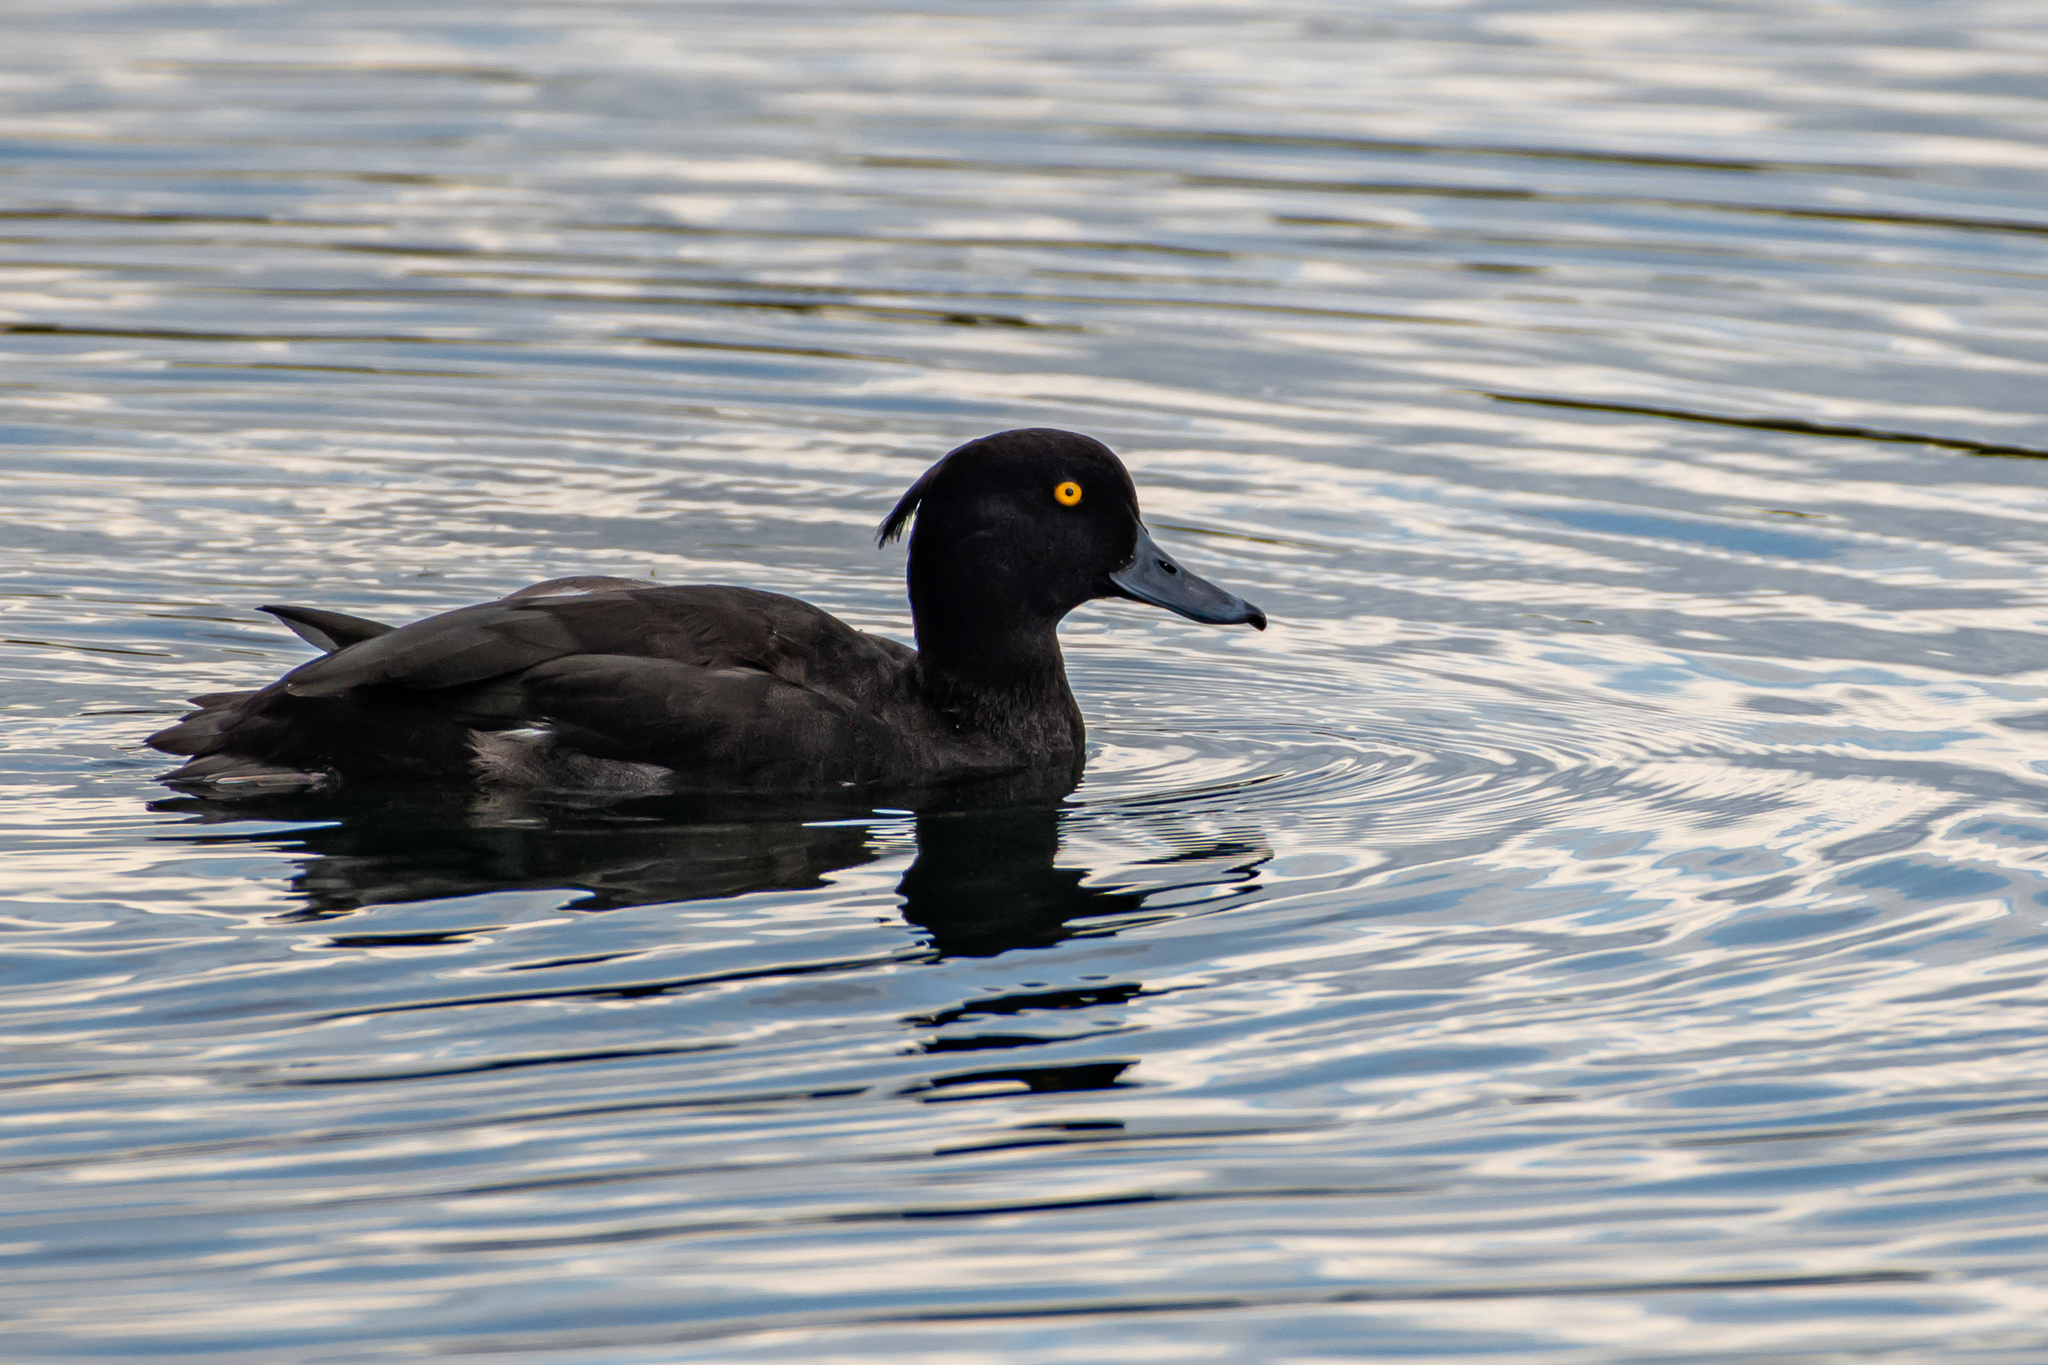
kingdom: Animalia
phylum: Chordata
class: Aves
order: Anseriformes
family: Anatidae
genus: Aythya
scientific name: Aythya fuligula
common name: Tufted duck
